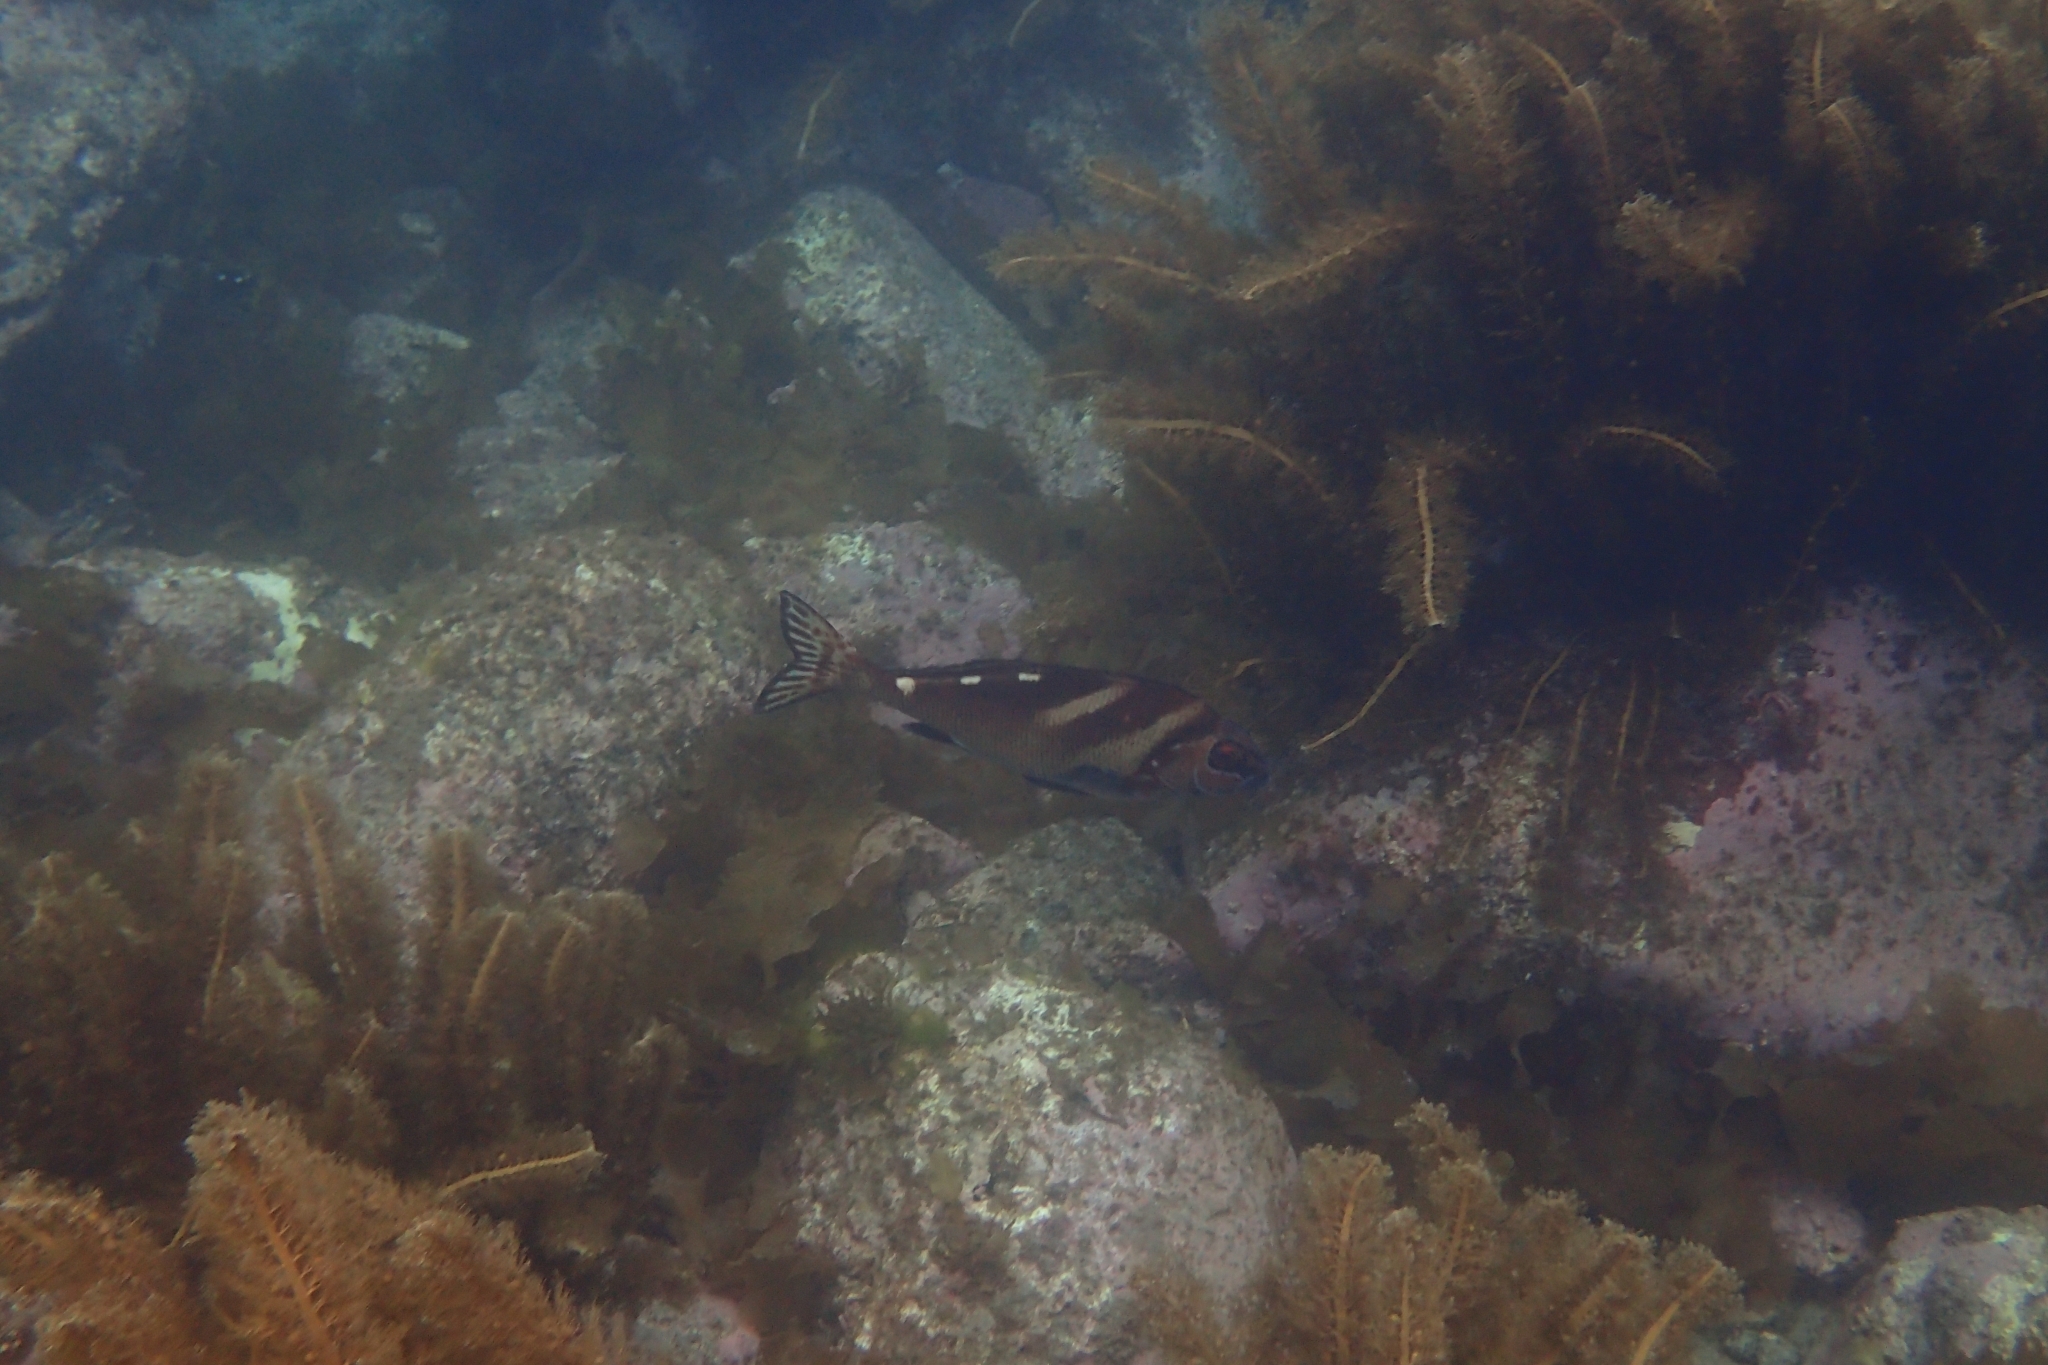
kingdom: Animalia
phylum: Chordata
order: Perciformes
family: Latridae
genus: Morwong
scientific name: Morwong ephippium
